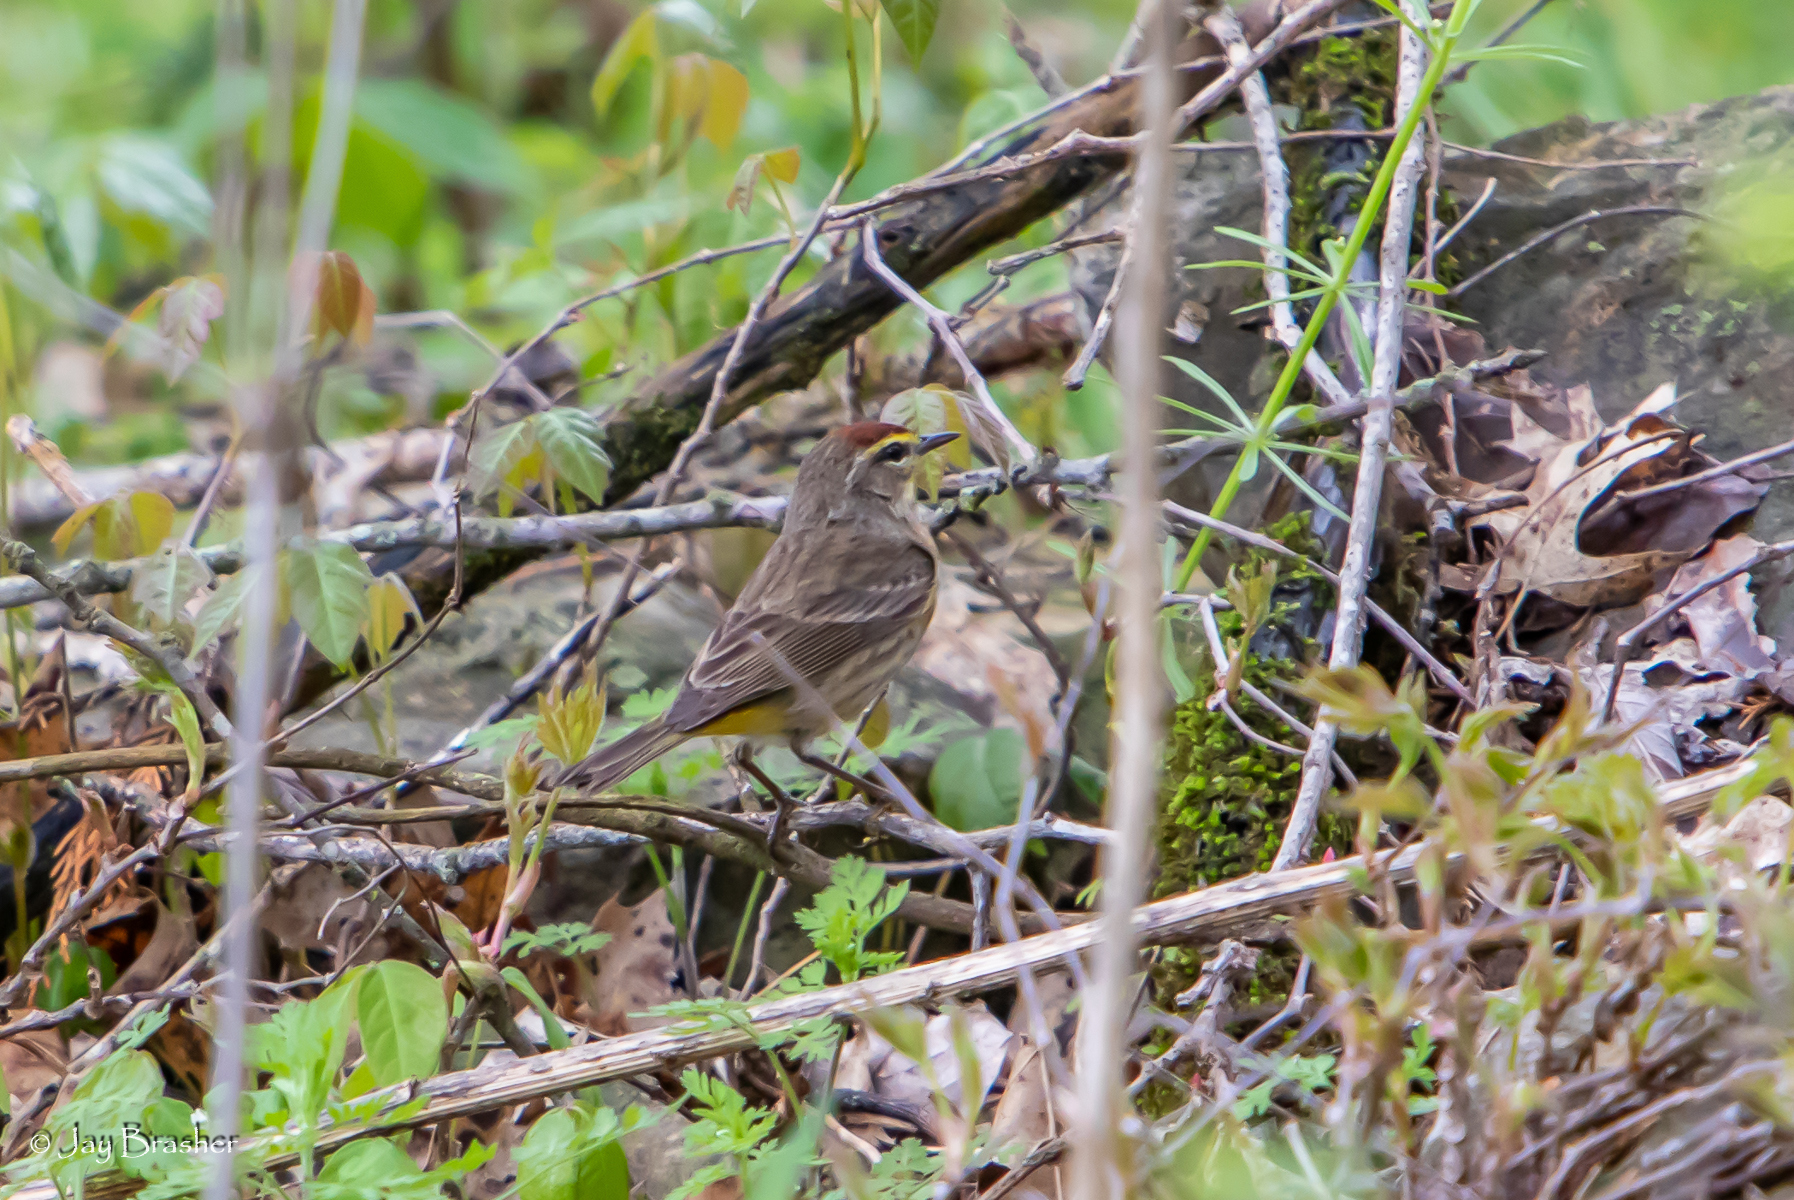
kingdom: Animalia
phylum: Chordata
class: Aves
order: Passeriformes
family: Parulidae
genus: Setophaga
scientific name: Setophaga palmarum
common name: Palm warbler
